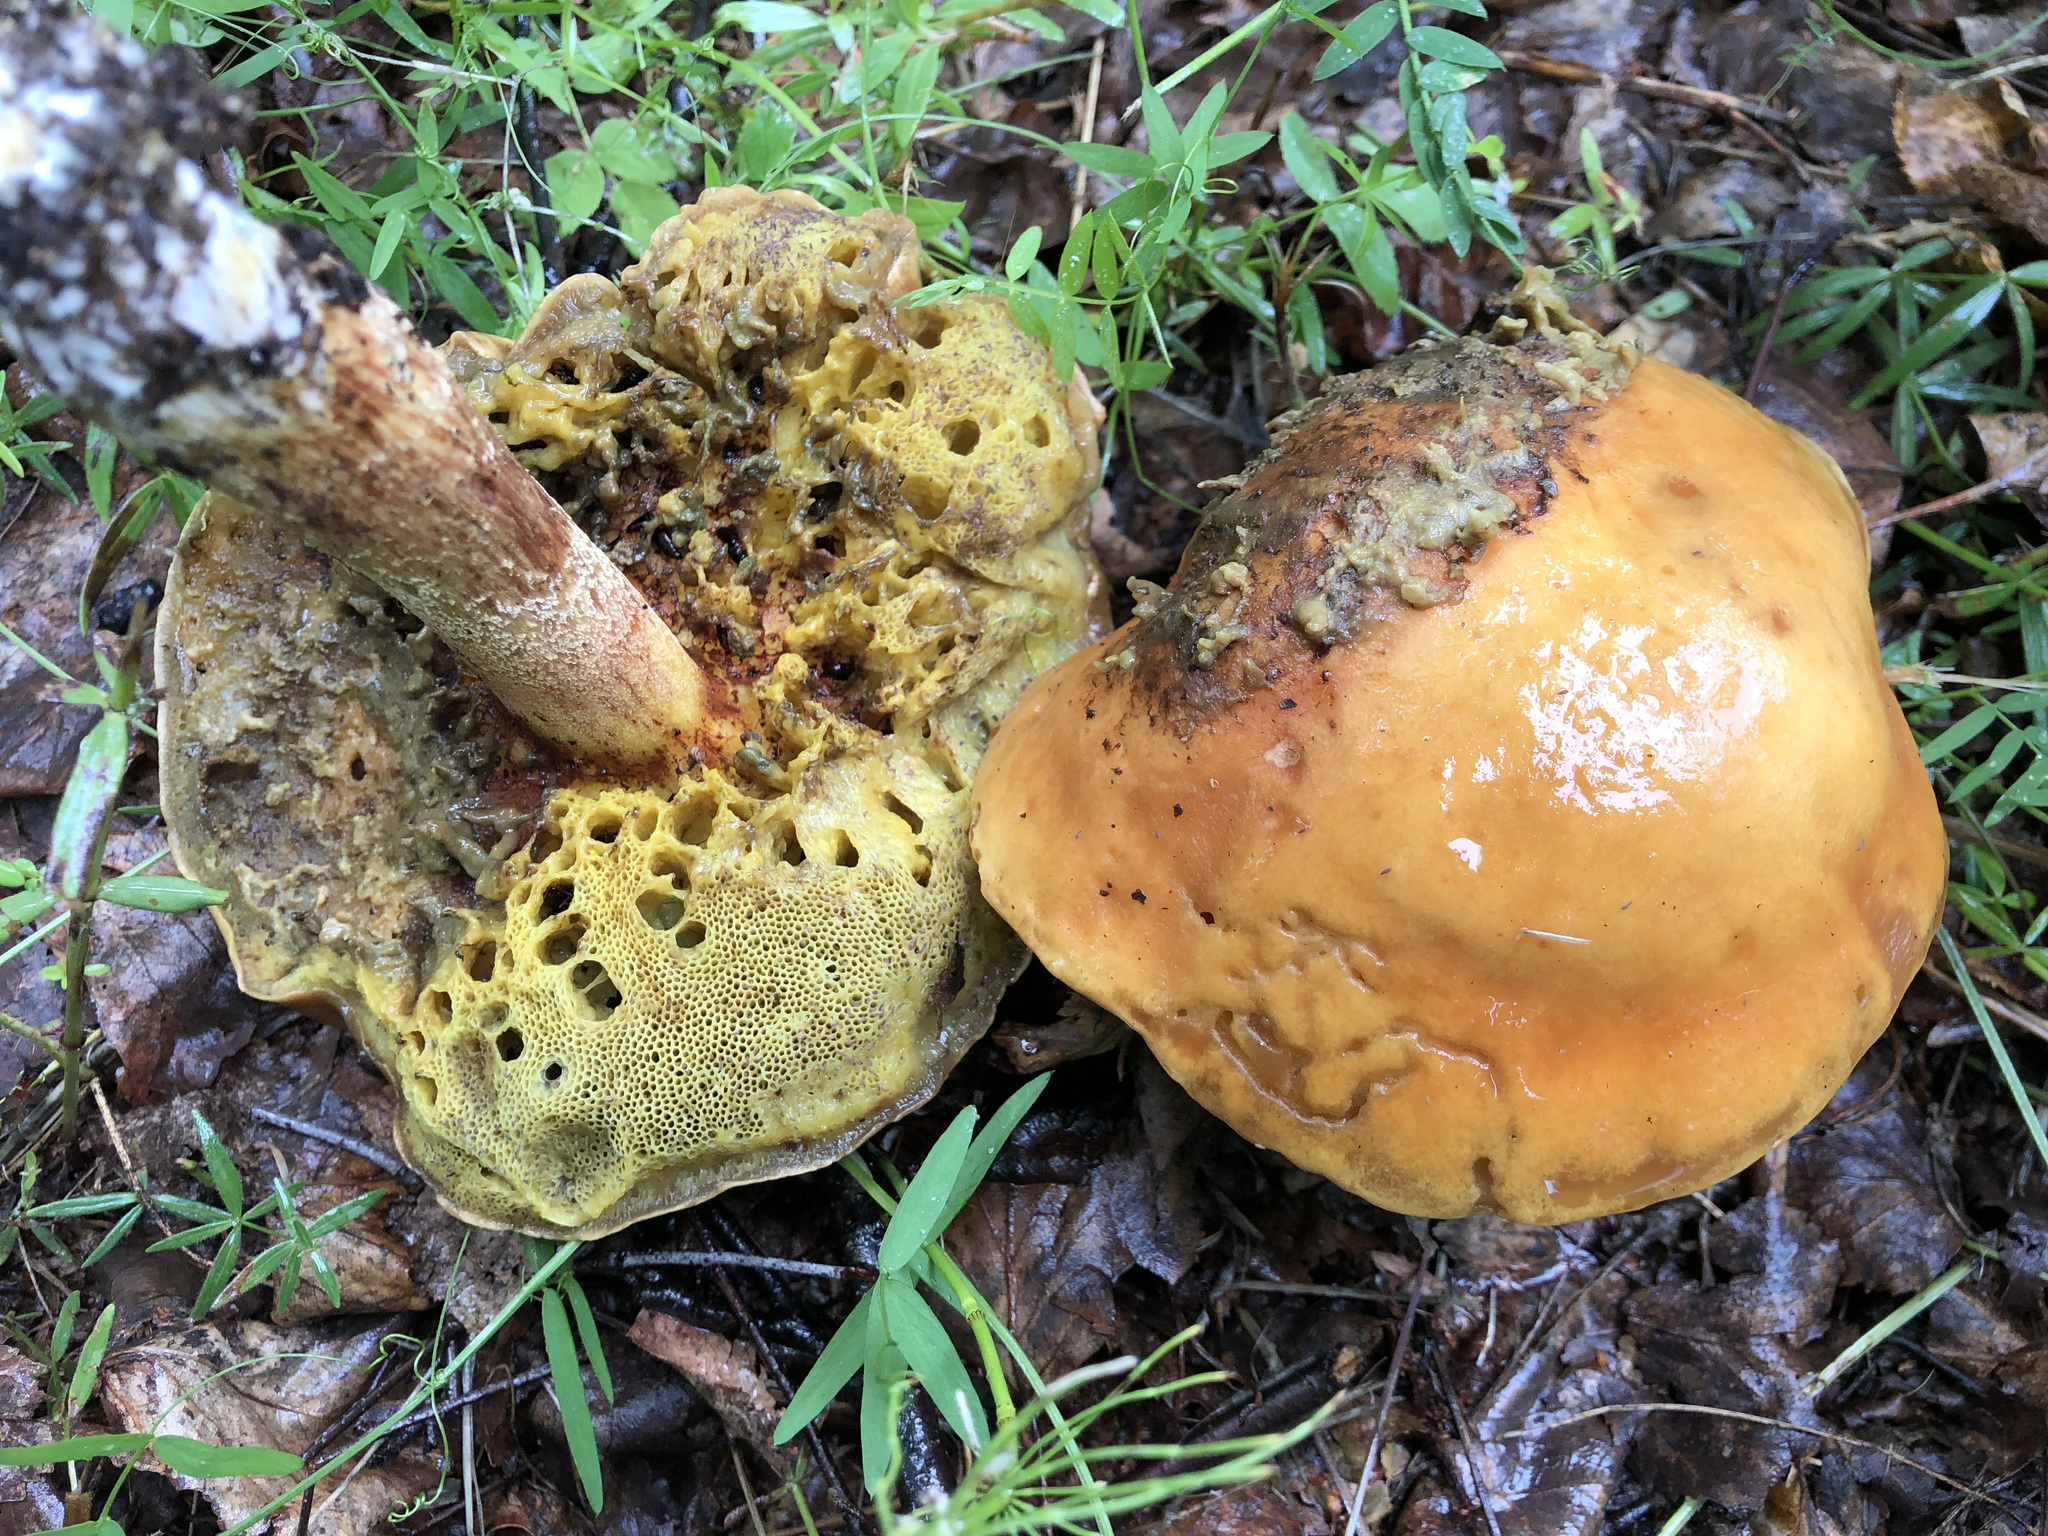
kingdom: Fungi
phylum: Basidiomycota
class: Agaricomycetes
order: Boletales
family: Boletaceae
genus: Hemileccinum
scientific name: Hemileccinum subglabripes
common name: Smoothish-stemmed bolete
